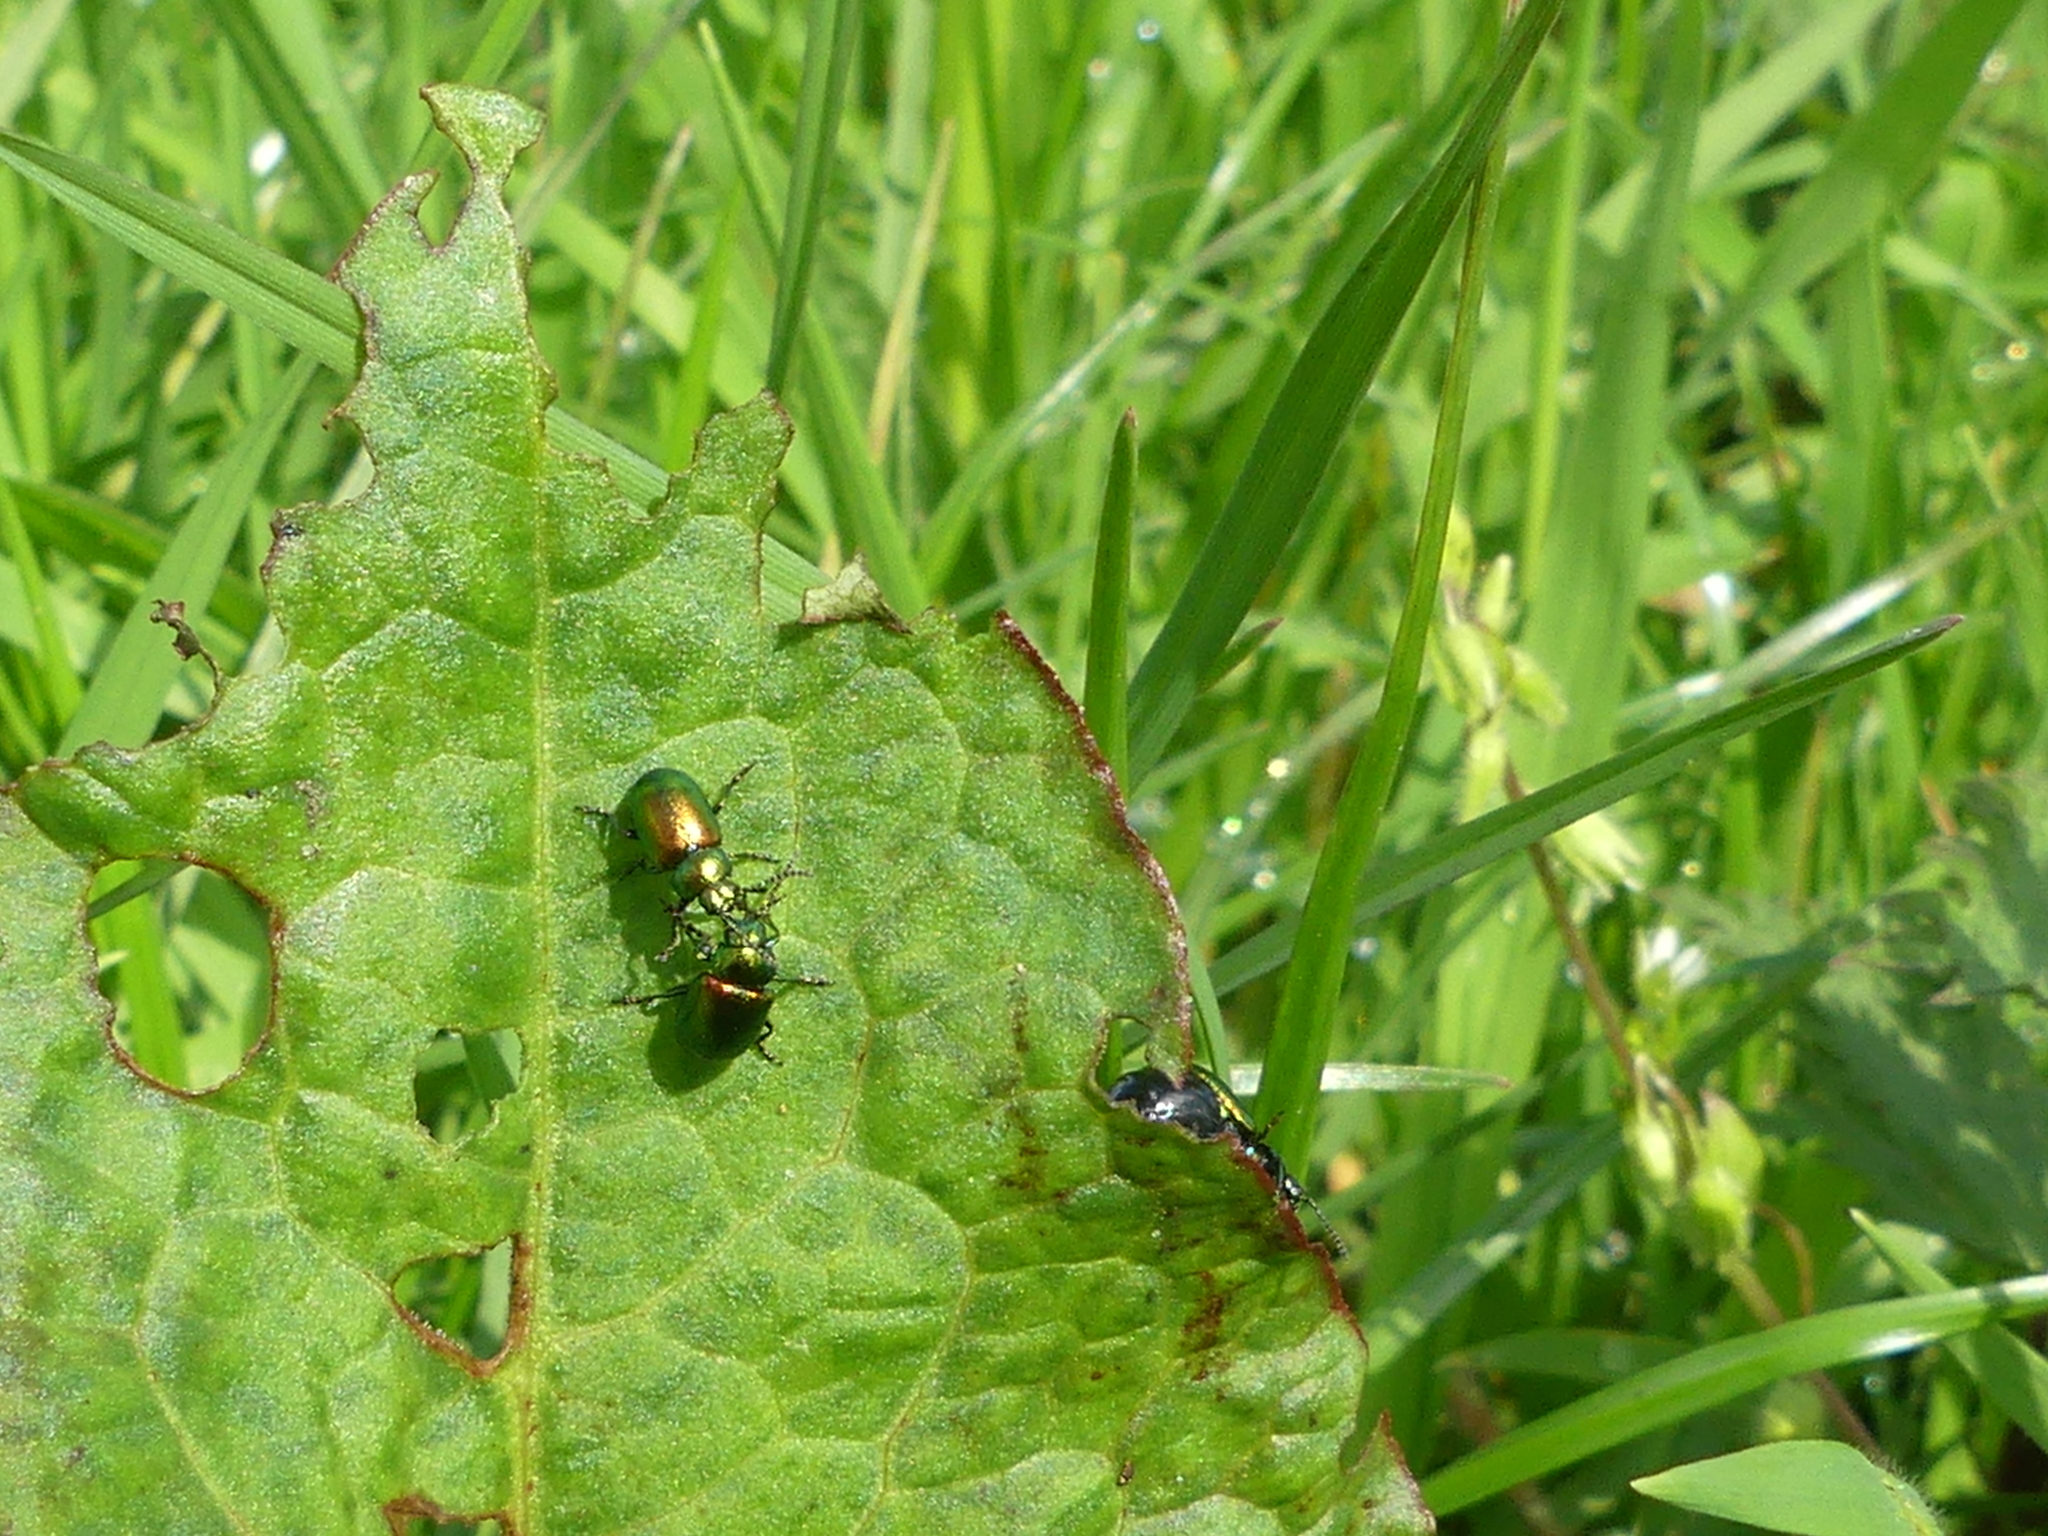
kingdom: Animalia
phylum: Arthropoda
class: Insecta
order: Coleoptera
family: Chrysomelidae
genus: Gastrophysa
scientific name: Gastrophysa viridula
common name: Green dock beetle
